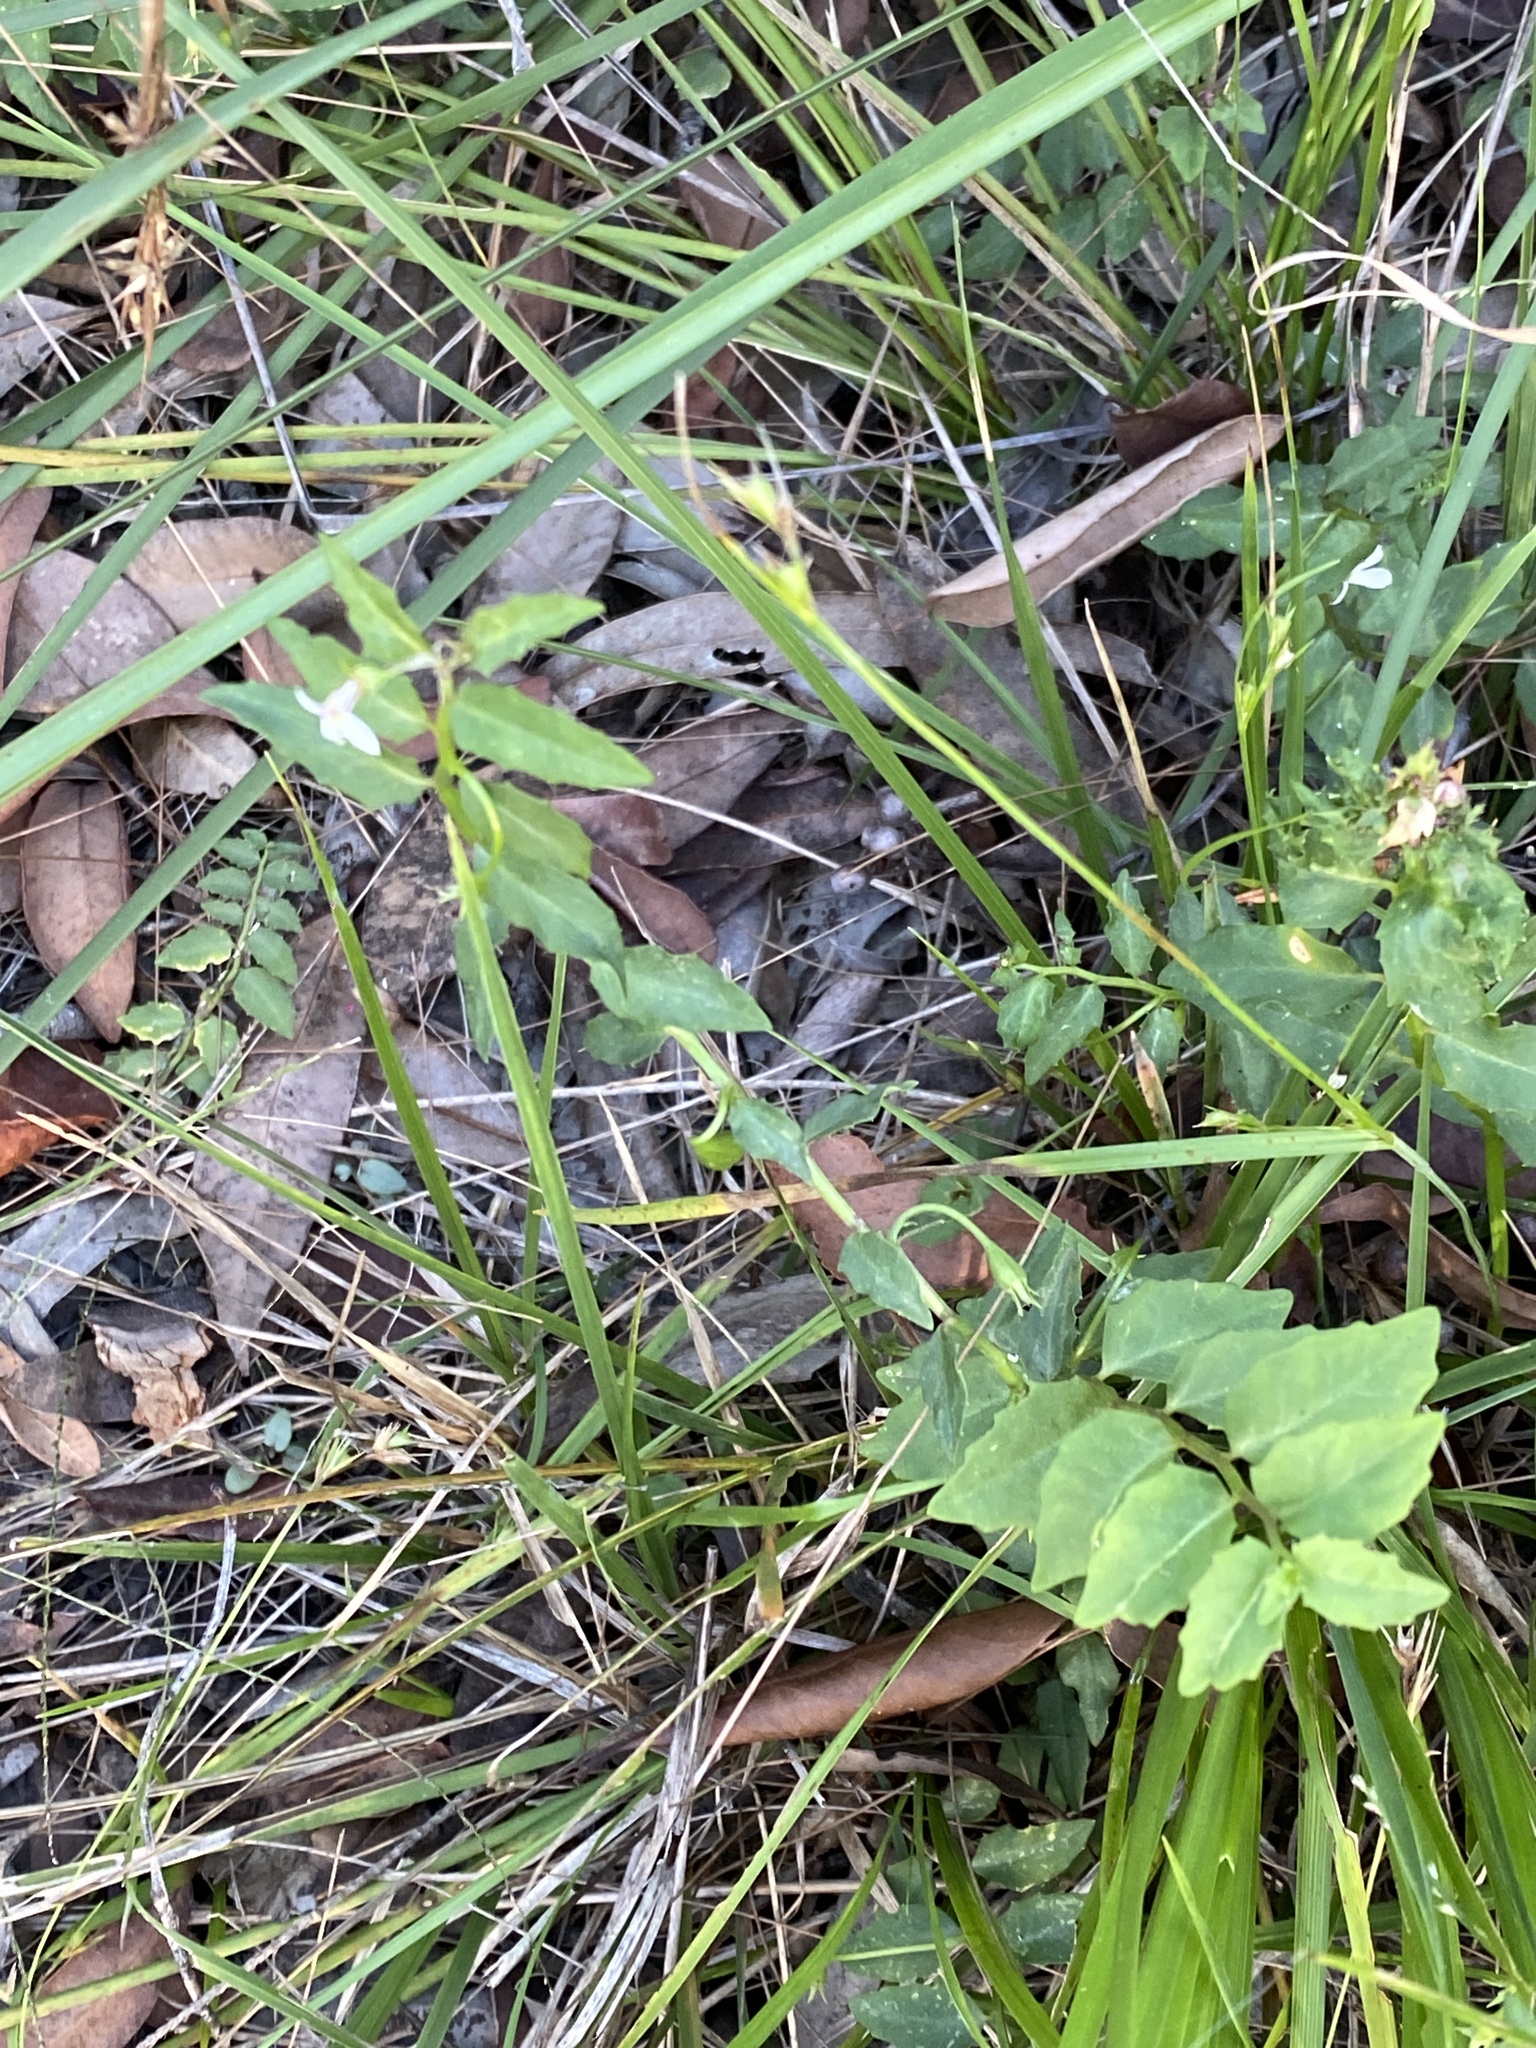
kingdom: Plantae
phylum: Tracheophyta
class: Magnoliopsida
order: Asterales
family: Campanulaceae
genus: Lobelia
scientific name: Lobelia purpurascens
